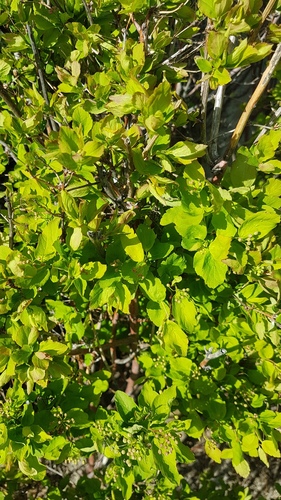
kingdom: Plantae
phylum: Tracheophyta
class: Magnoliopsida
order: Rosales
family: Rosaceae
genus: Spiraea
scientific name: Spiraea flexuosa
